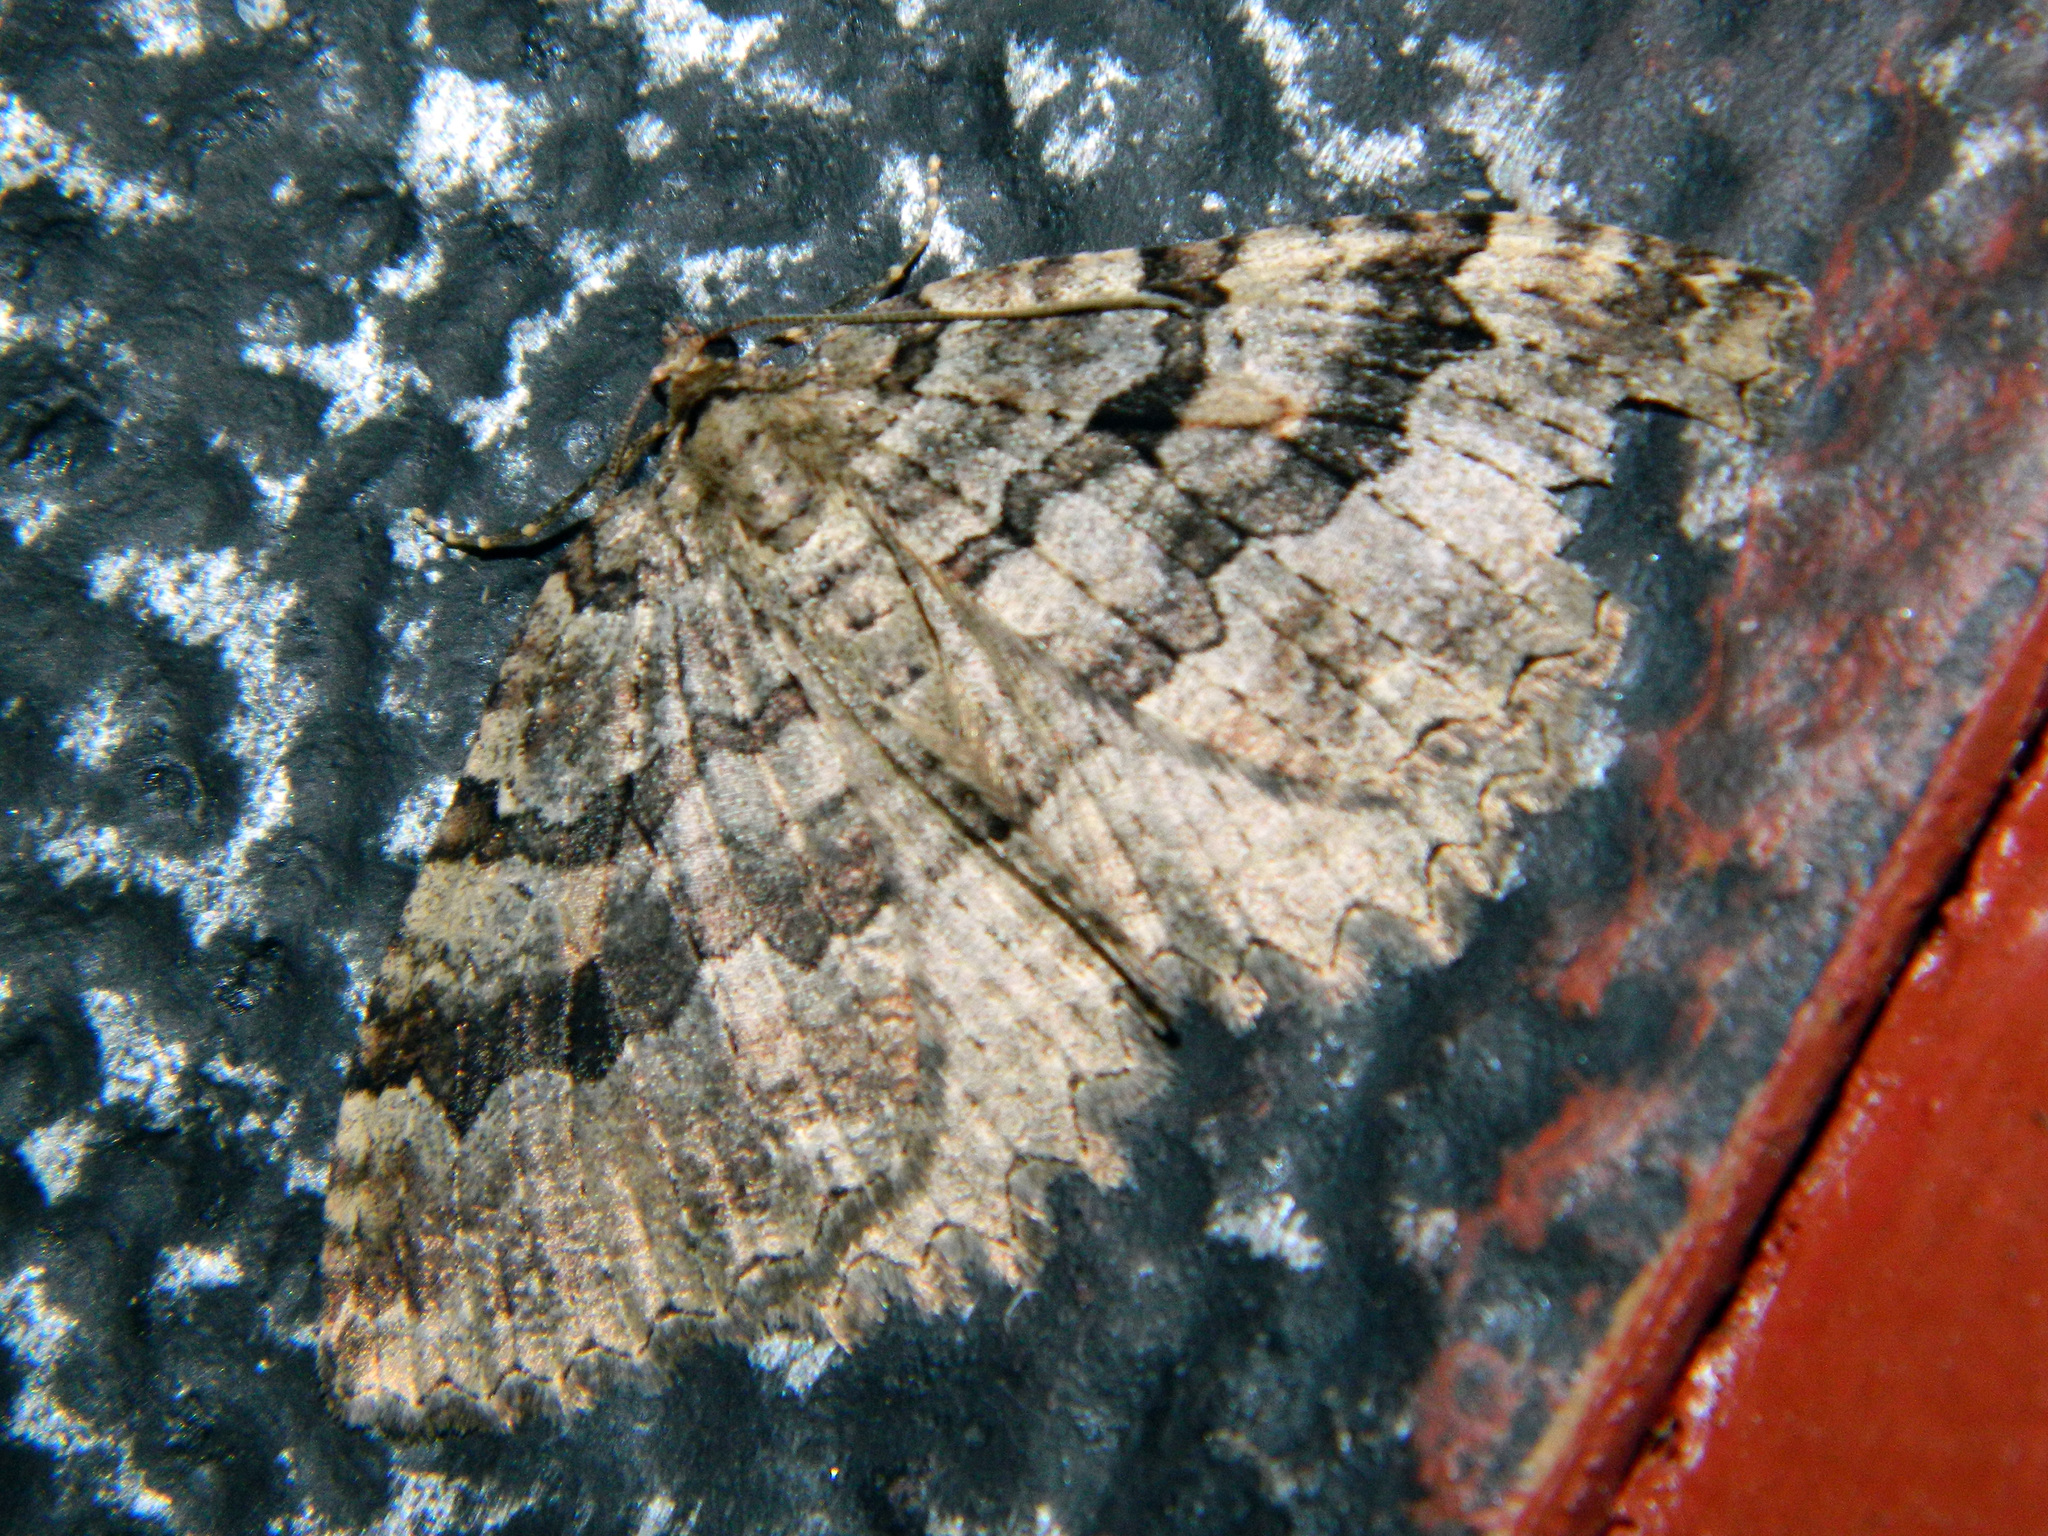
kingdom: Animalia
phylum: Arthropoda
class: Insecta
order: Lepidoptera
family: Geometridae
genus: Triphosa
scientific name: Triphosa haesitata
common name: Tissue moth
